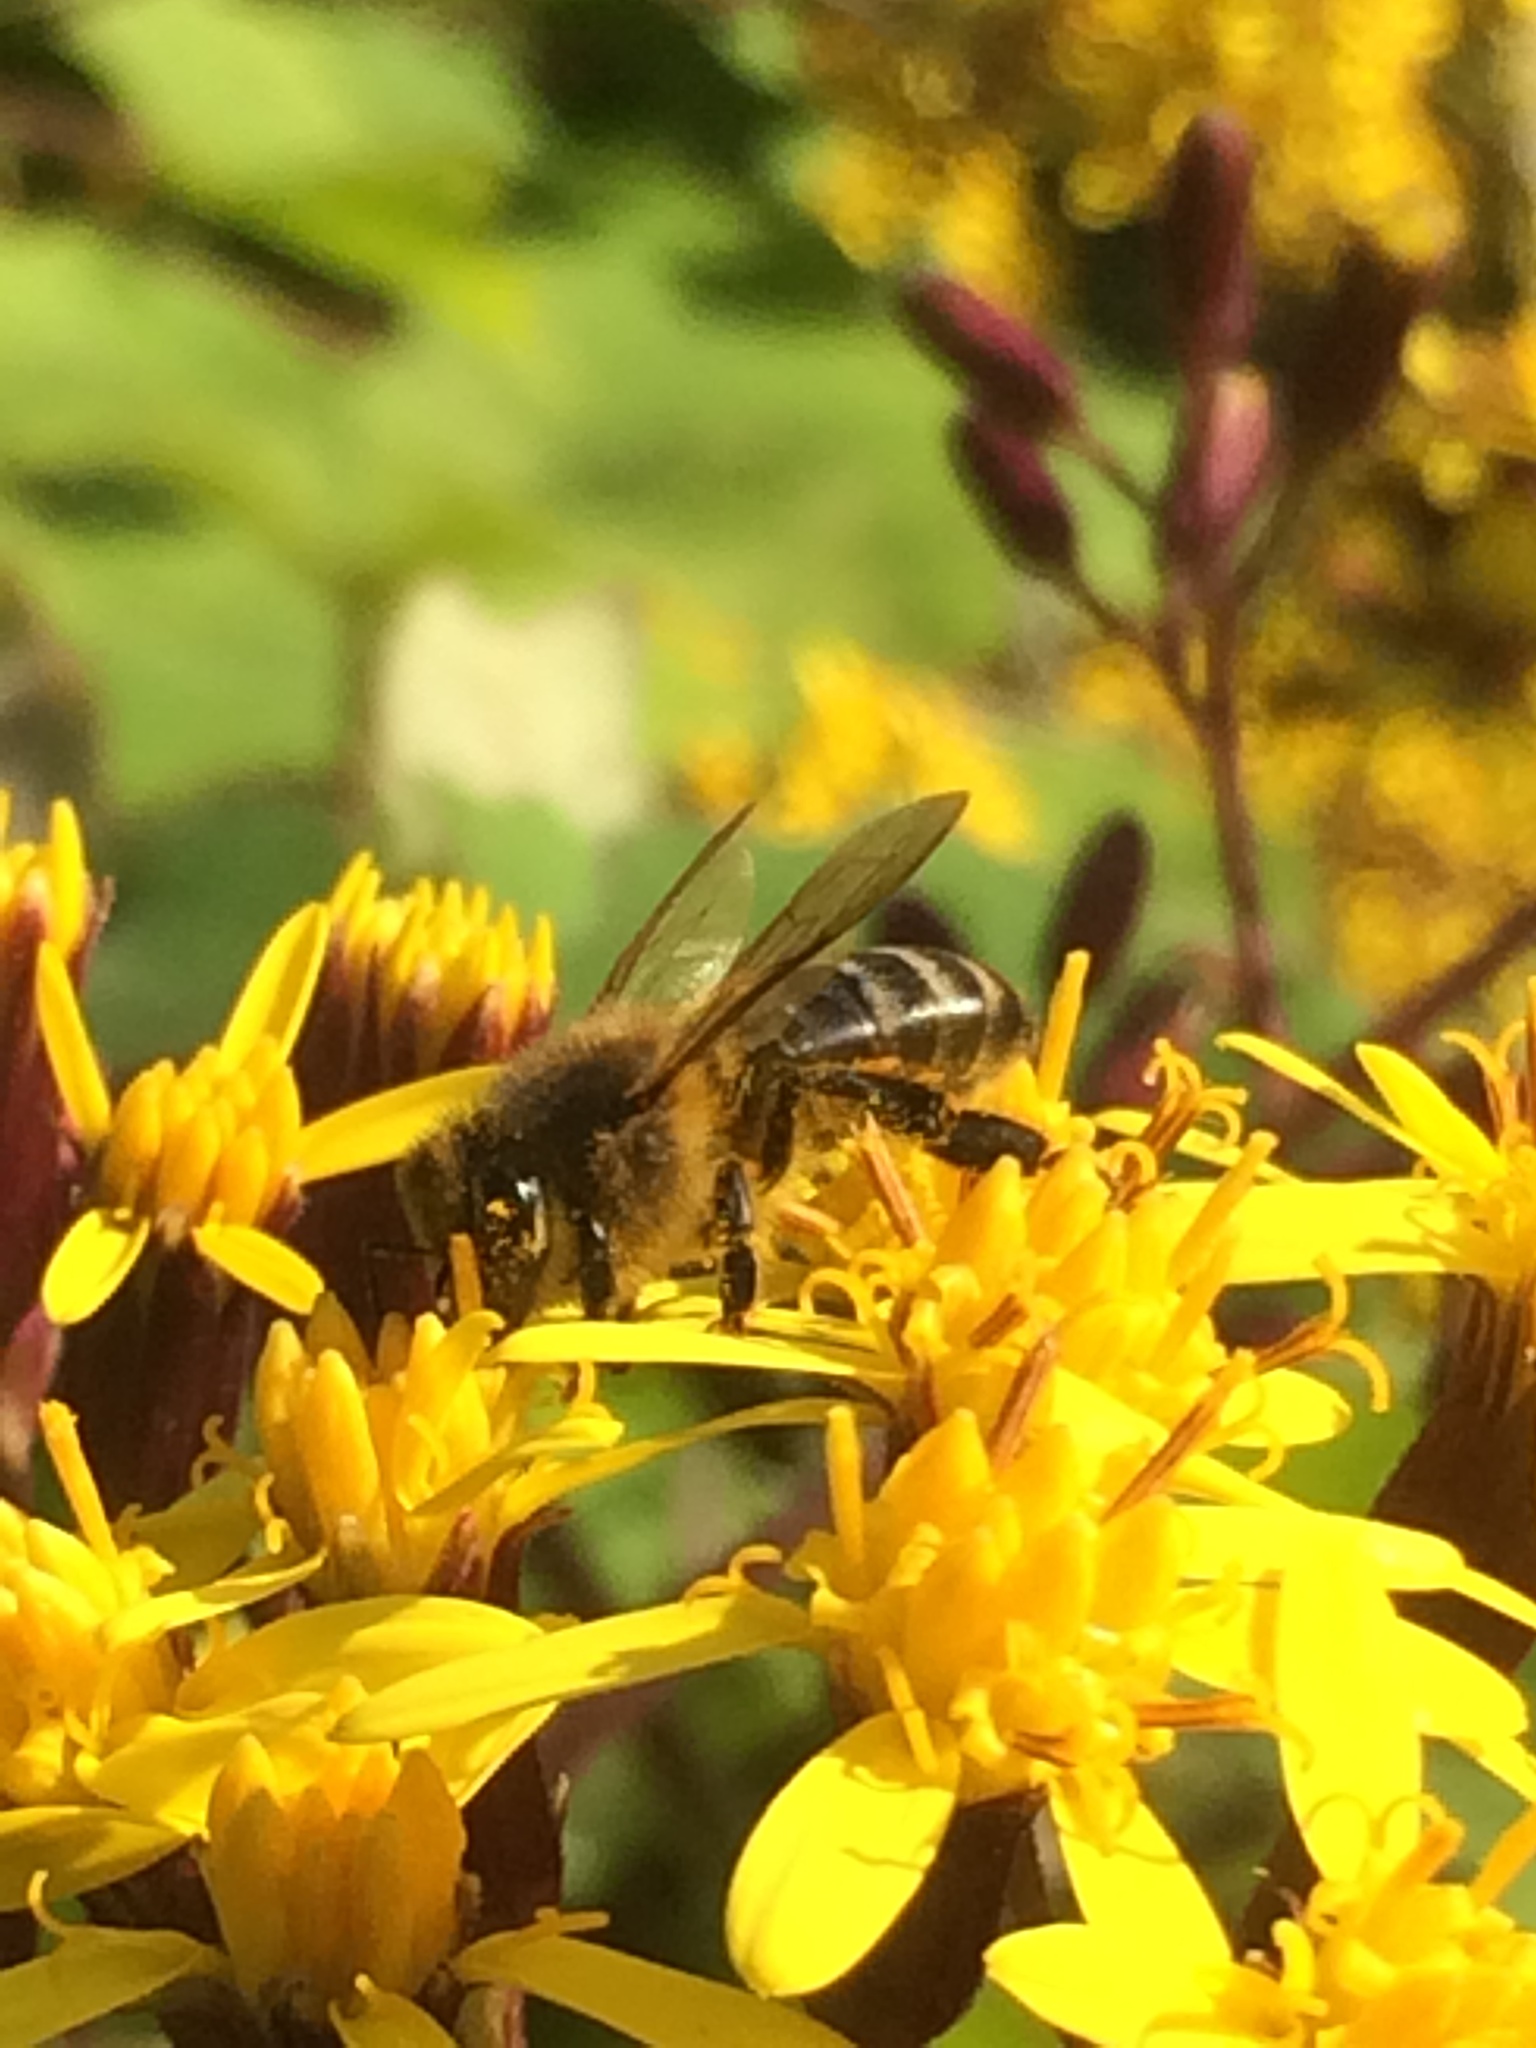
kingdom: Animalia
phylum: Arthropoda
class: Insecta
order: Hymenoptera
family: Apidae
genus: Apis
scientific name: Apis mellifera
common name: Honey bee
